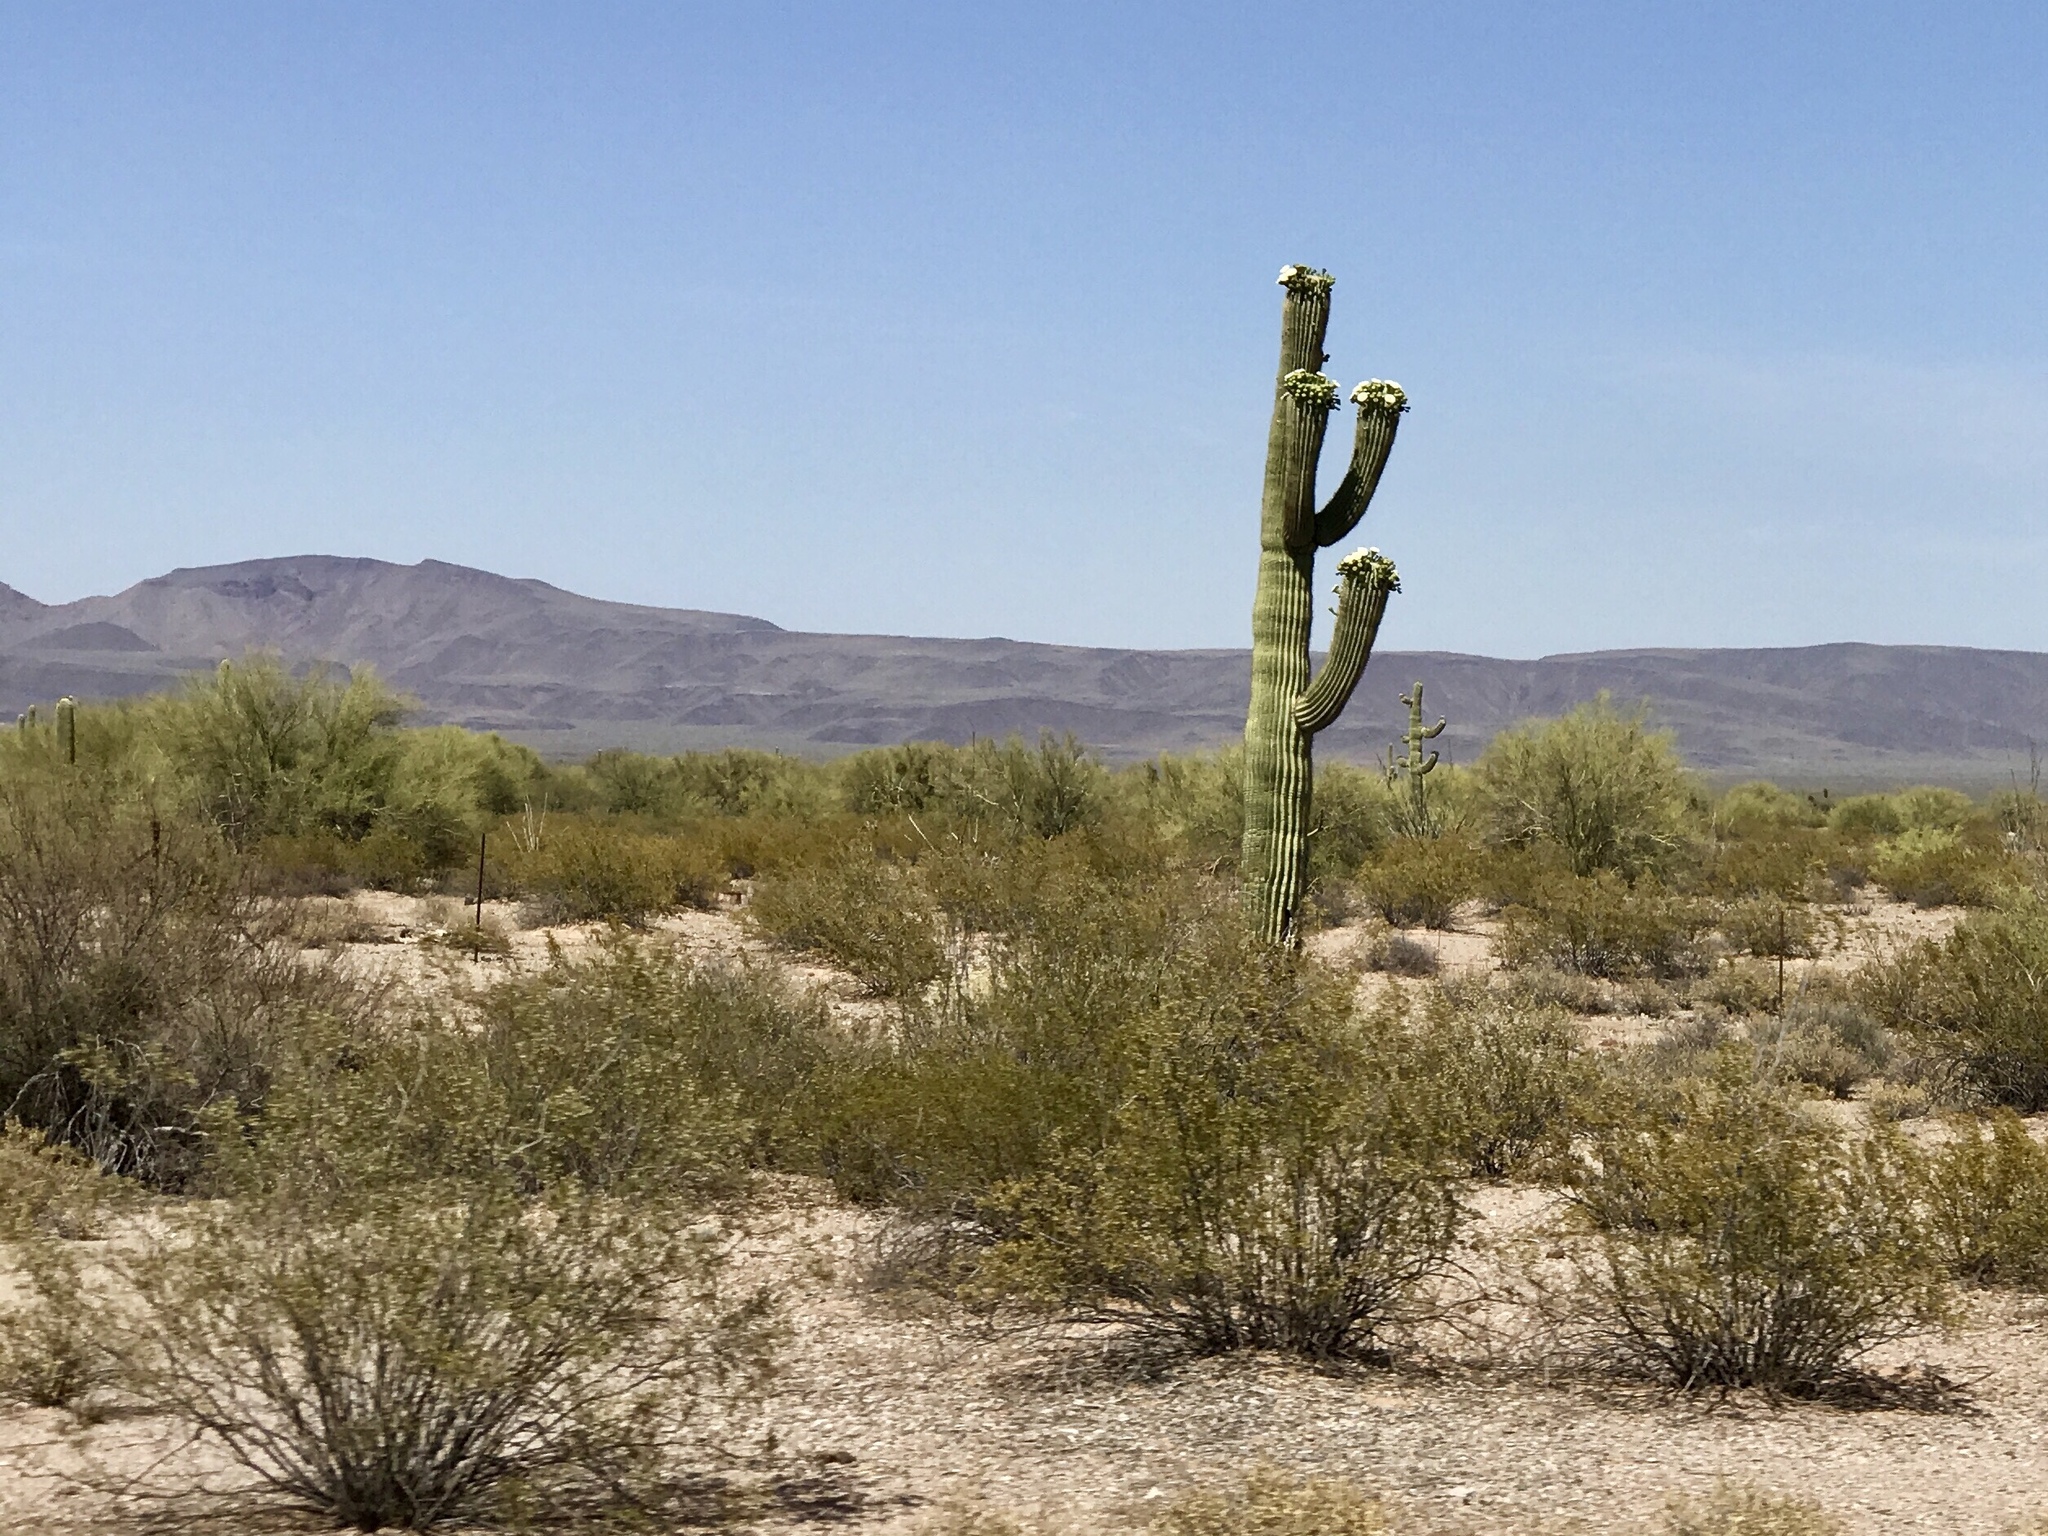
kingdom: Plantae
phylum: Tracheophyta
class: Magnoliopsida
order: Caryophyllales
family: Cactaceae
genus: Carnegiea
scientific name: Carnegiea gigantea
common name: Saguaro
